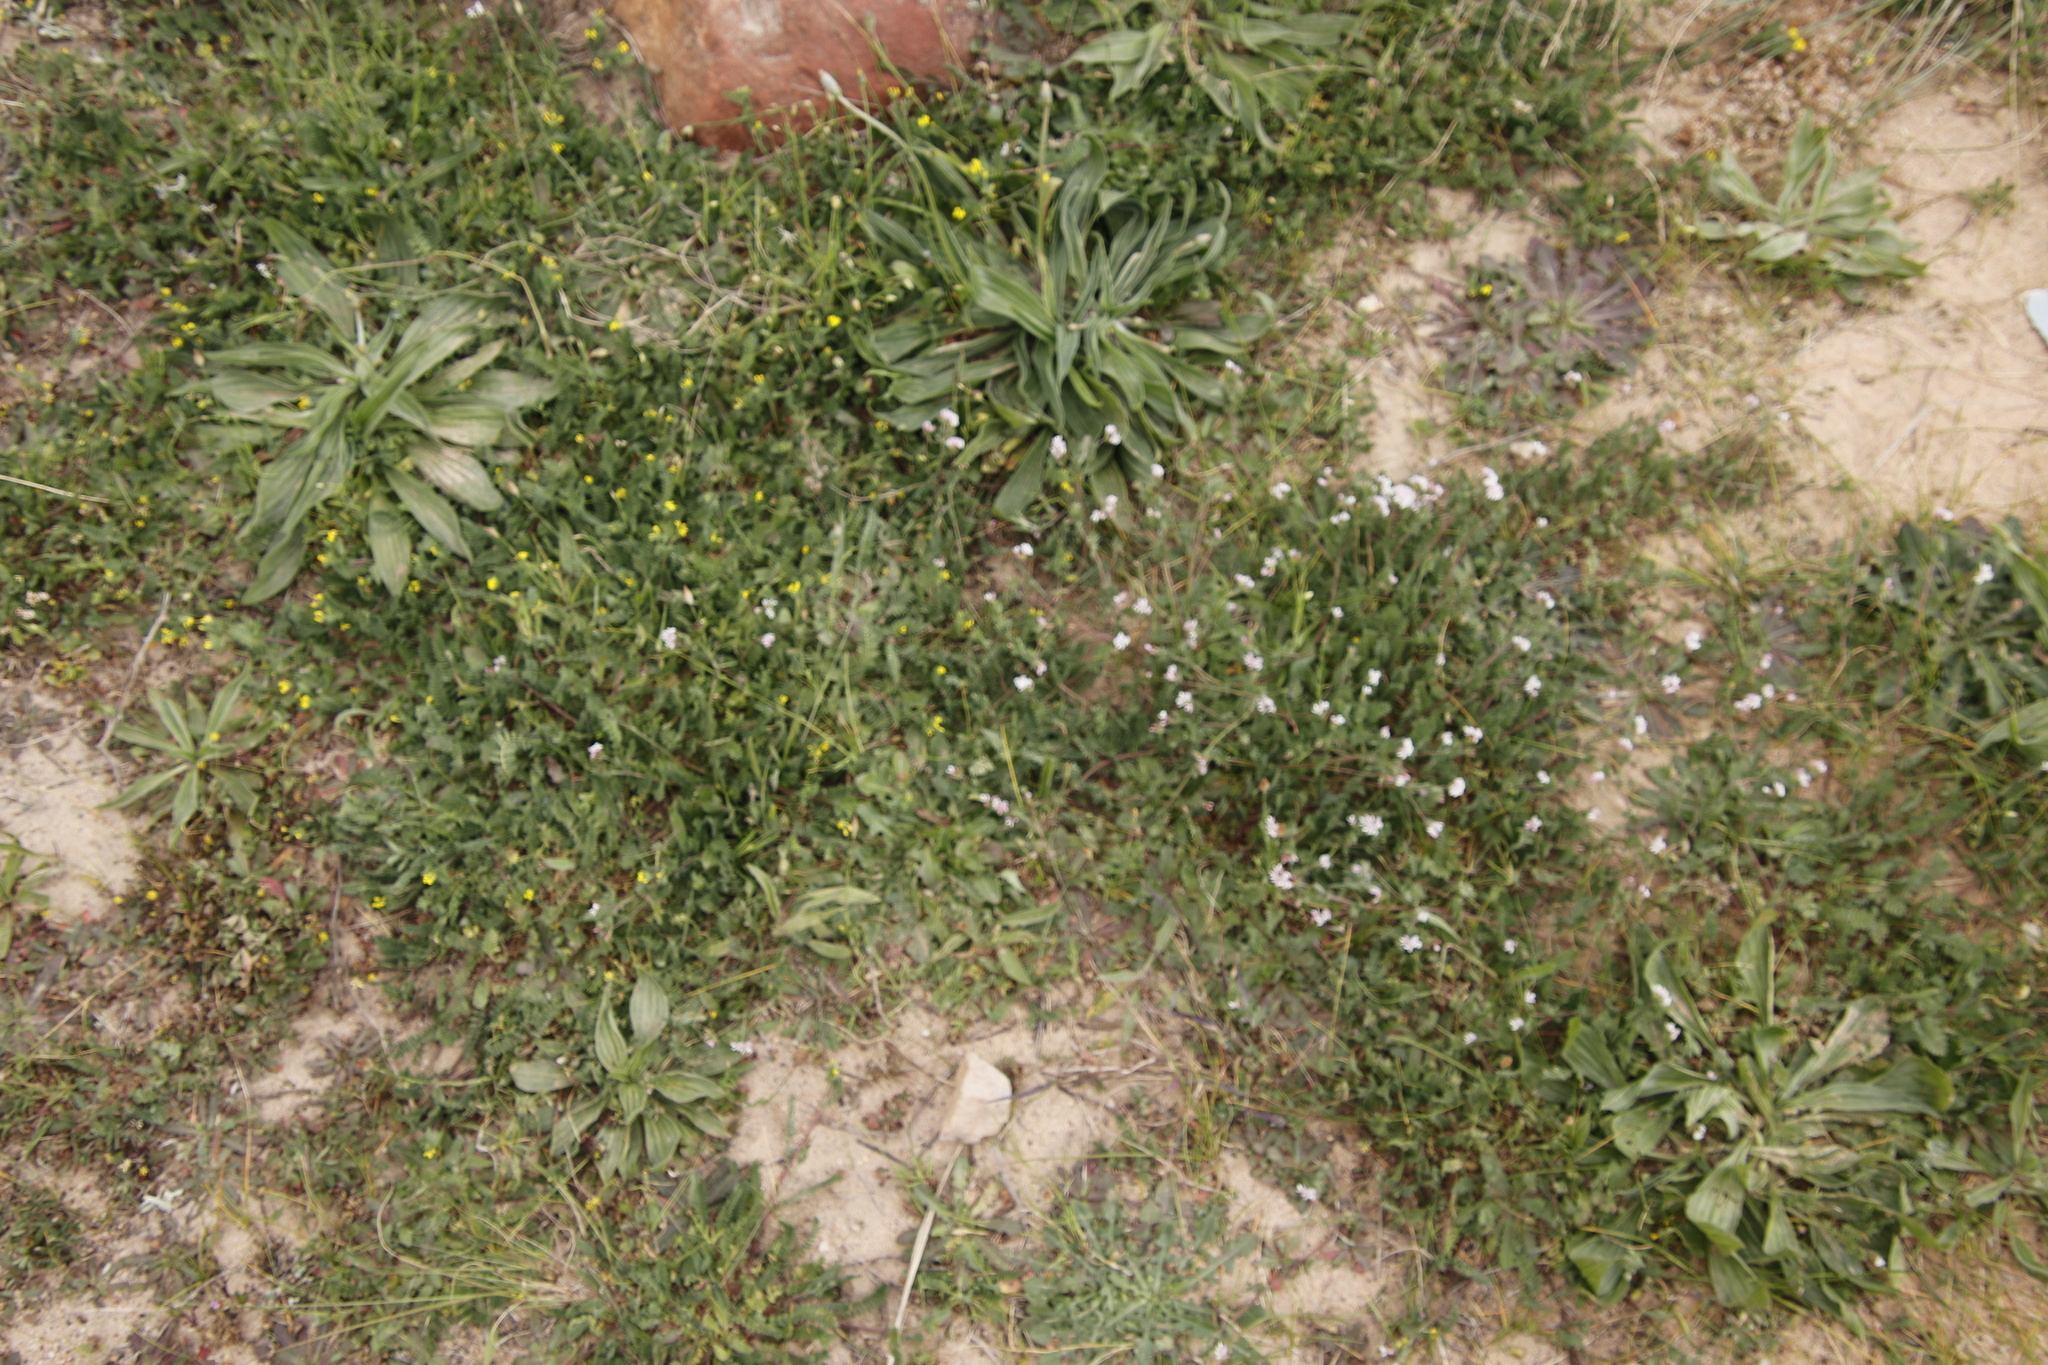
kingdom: Plantae
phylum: Tracheophyta
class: Magnoliopsida
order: Fabales
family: Fabaceae
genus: Ornithopus
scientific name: Ornithopus sativus
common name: Serradella
